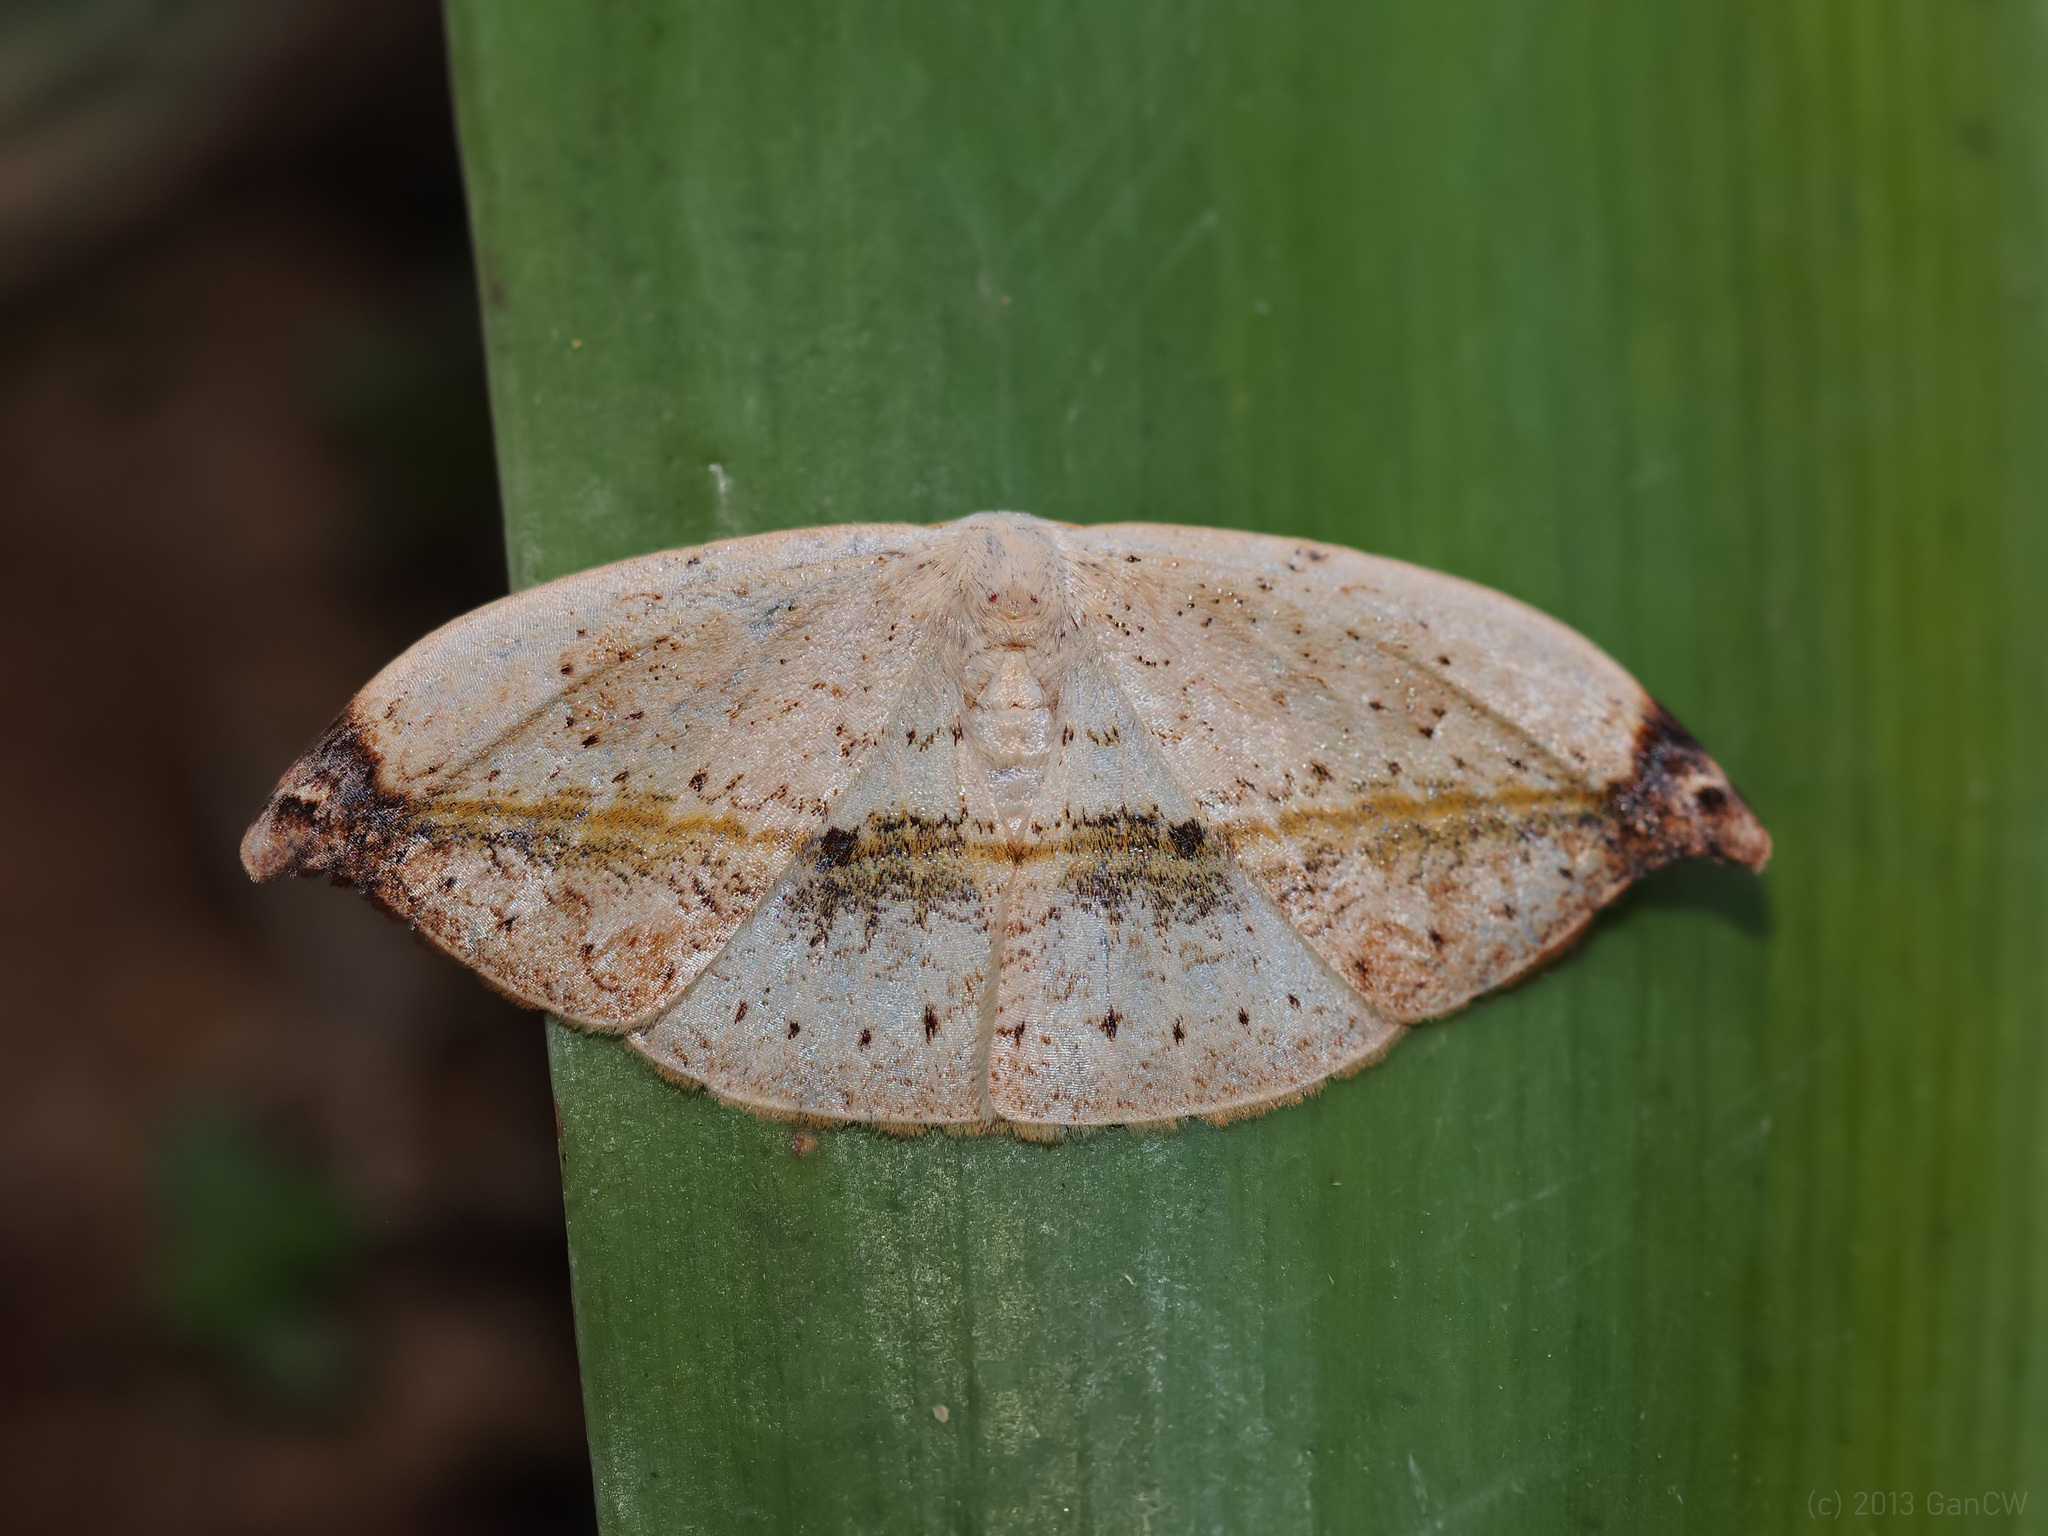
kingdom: Animalia
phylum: Arthropoda
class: Insecta
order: Lepidoptera
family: Drepanidae
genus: Callidrepana
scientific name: Callidrepana albiceris
